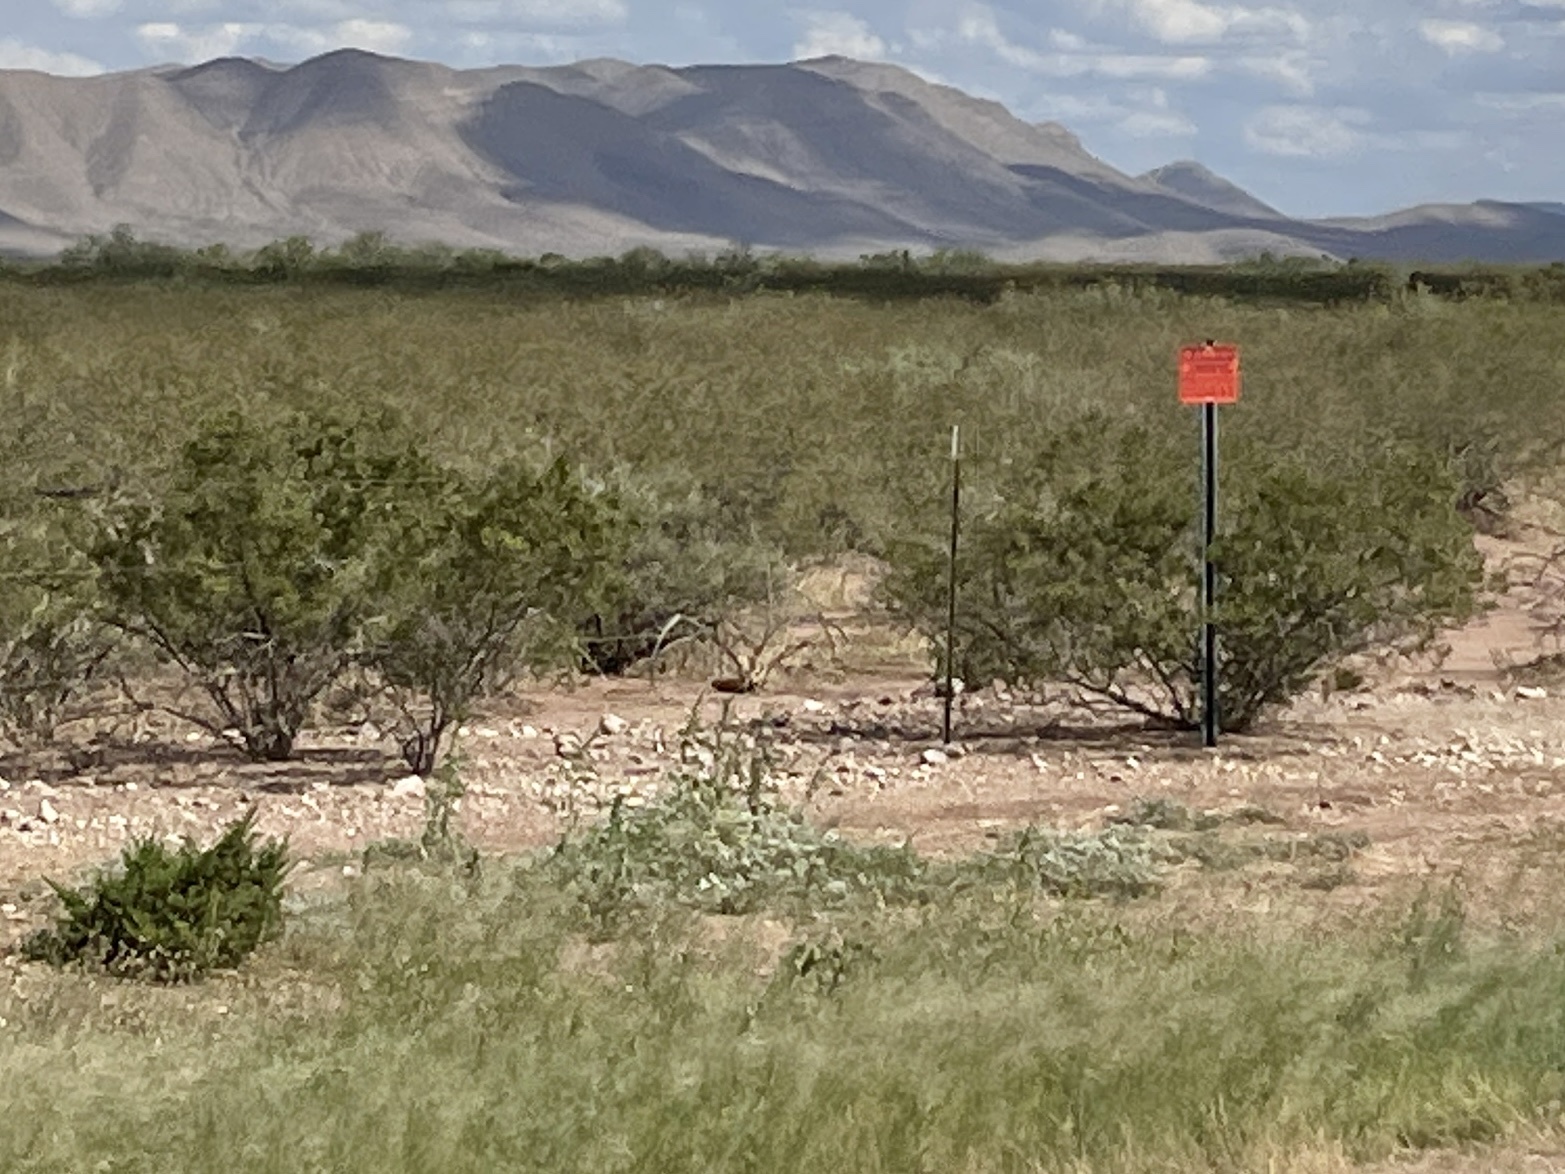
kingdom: Plantae
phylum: Tracheophyta
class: Magnoliopsida
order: Zygophyllales
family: Zygophyllaceae
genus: Larrea
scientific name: Larrea tridentata
